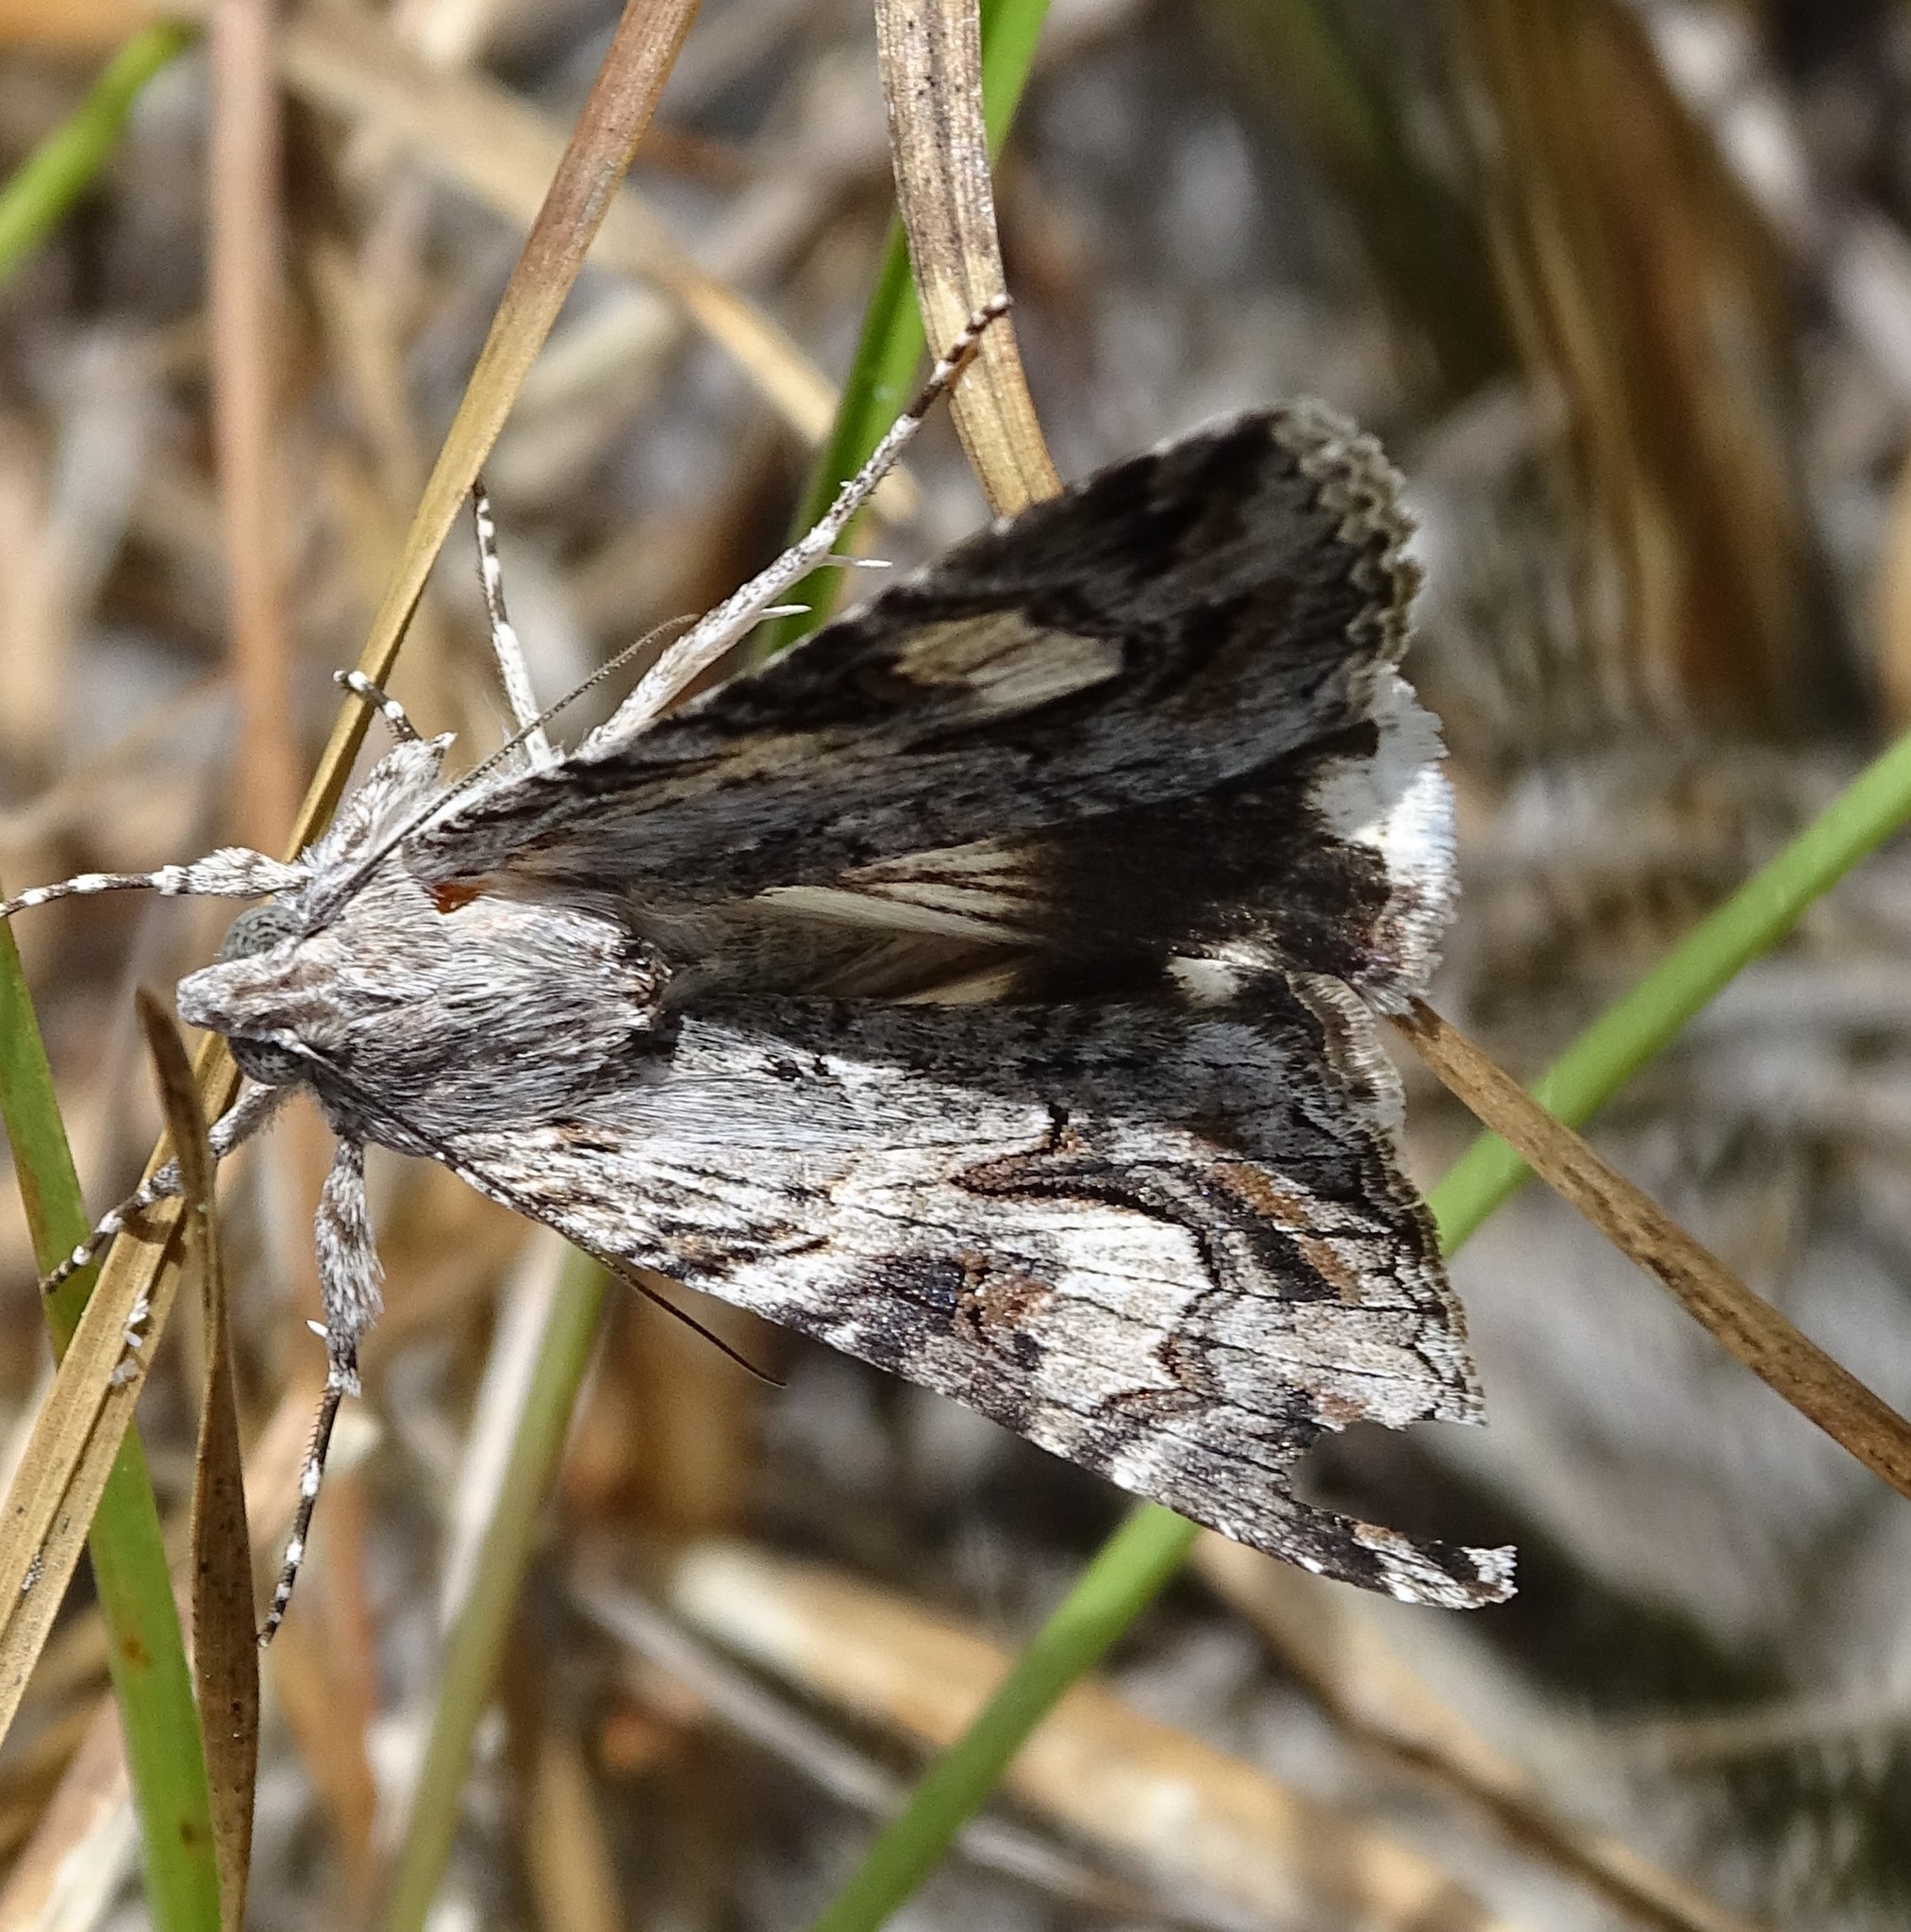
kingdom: Animalia
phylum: Arthropoda
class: Insecta
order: Lepidoptera
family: Erebidae
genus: Melipotis
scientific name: Melipotis jucunda
